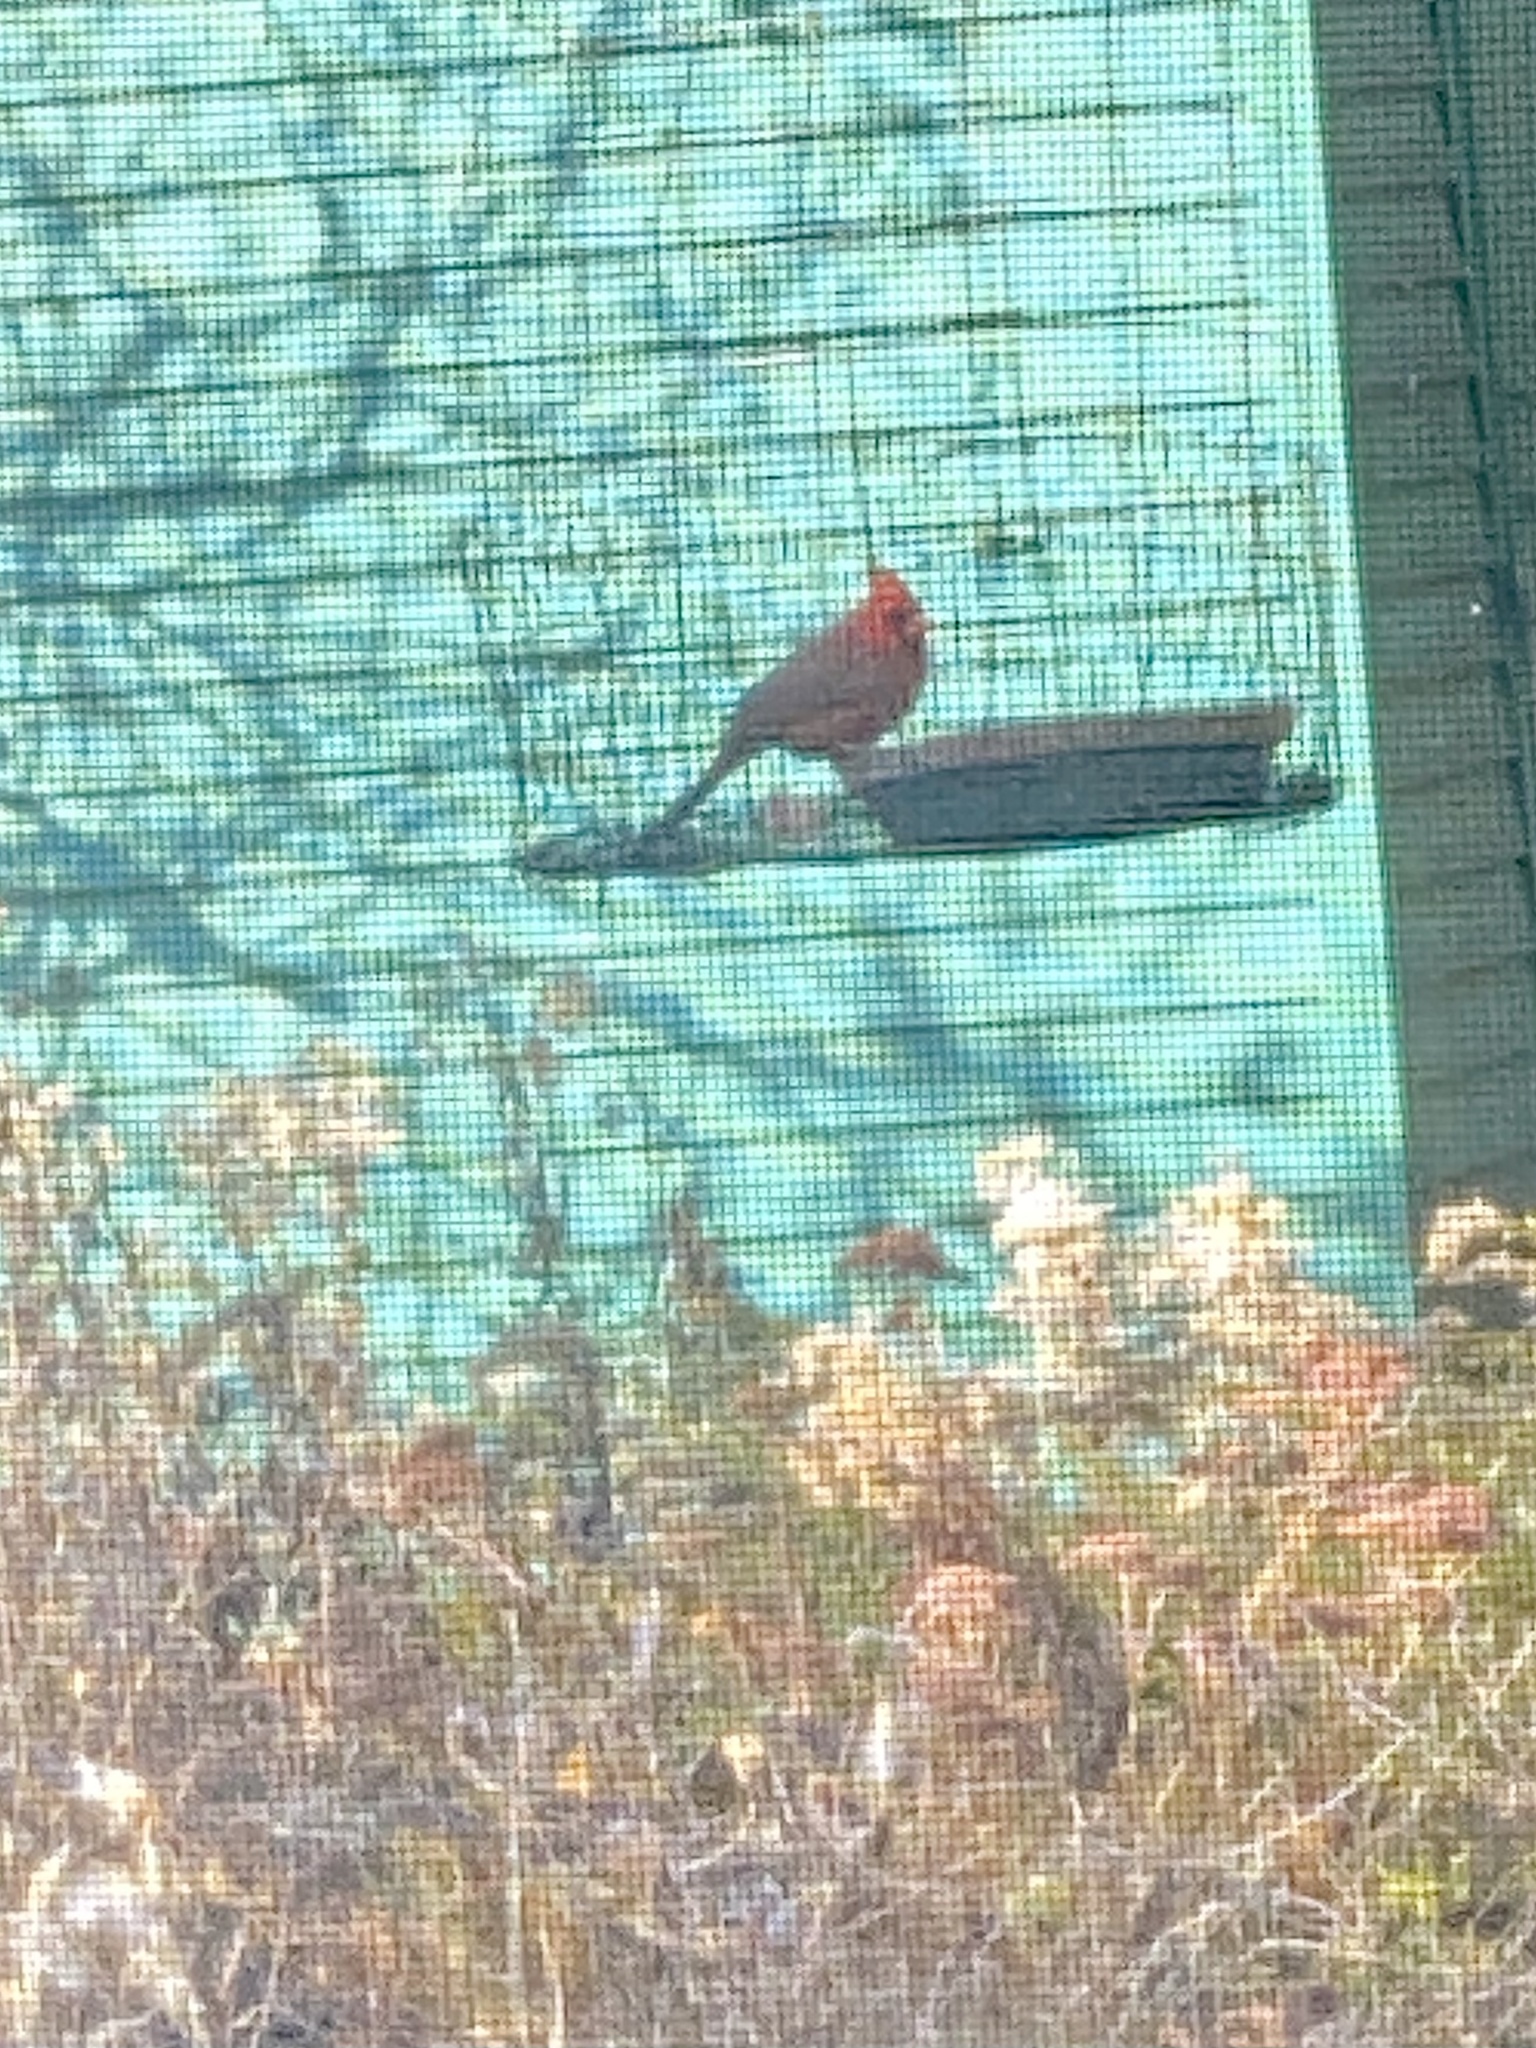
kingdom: Animalia
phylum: Chordata
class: Aves
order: Passeriformes
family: Cardinalidae
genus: Cardinalis
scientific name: Cardinalis cardinalis
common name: Northern cardinal
